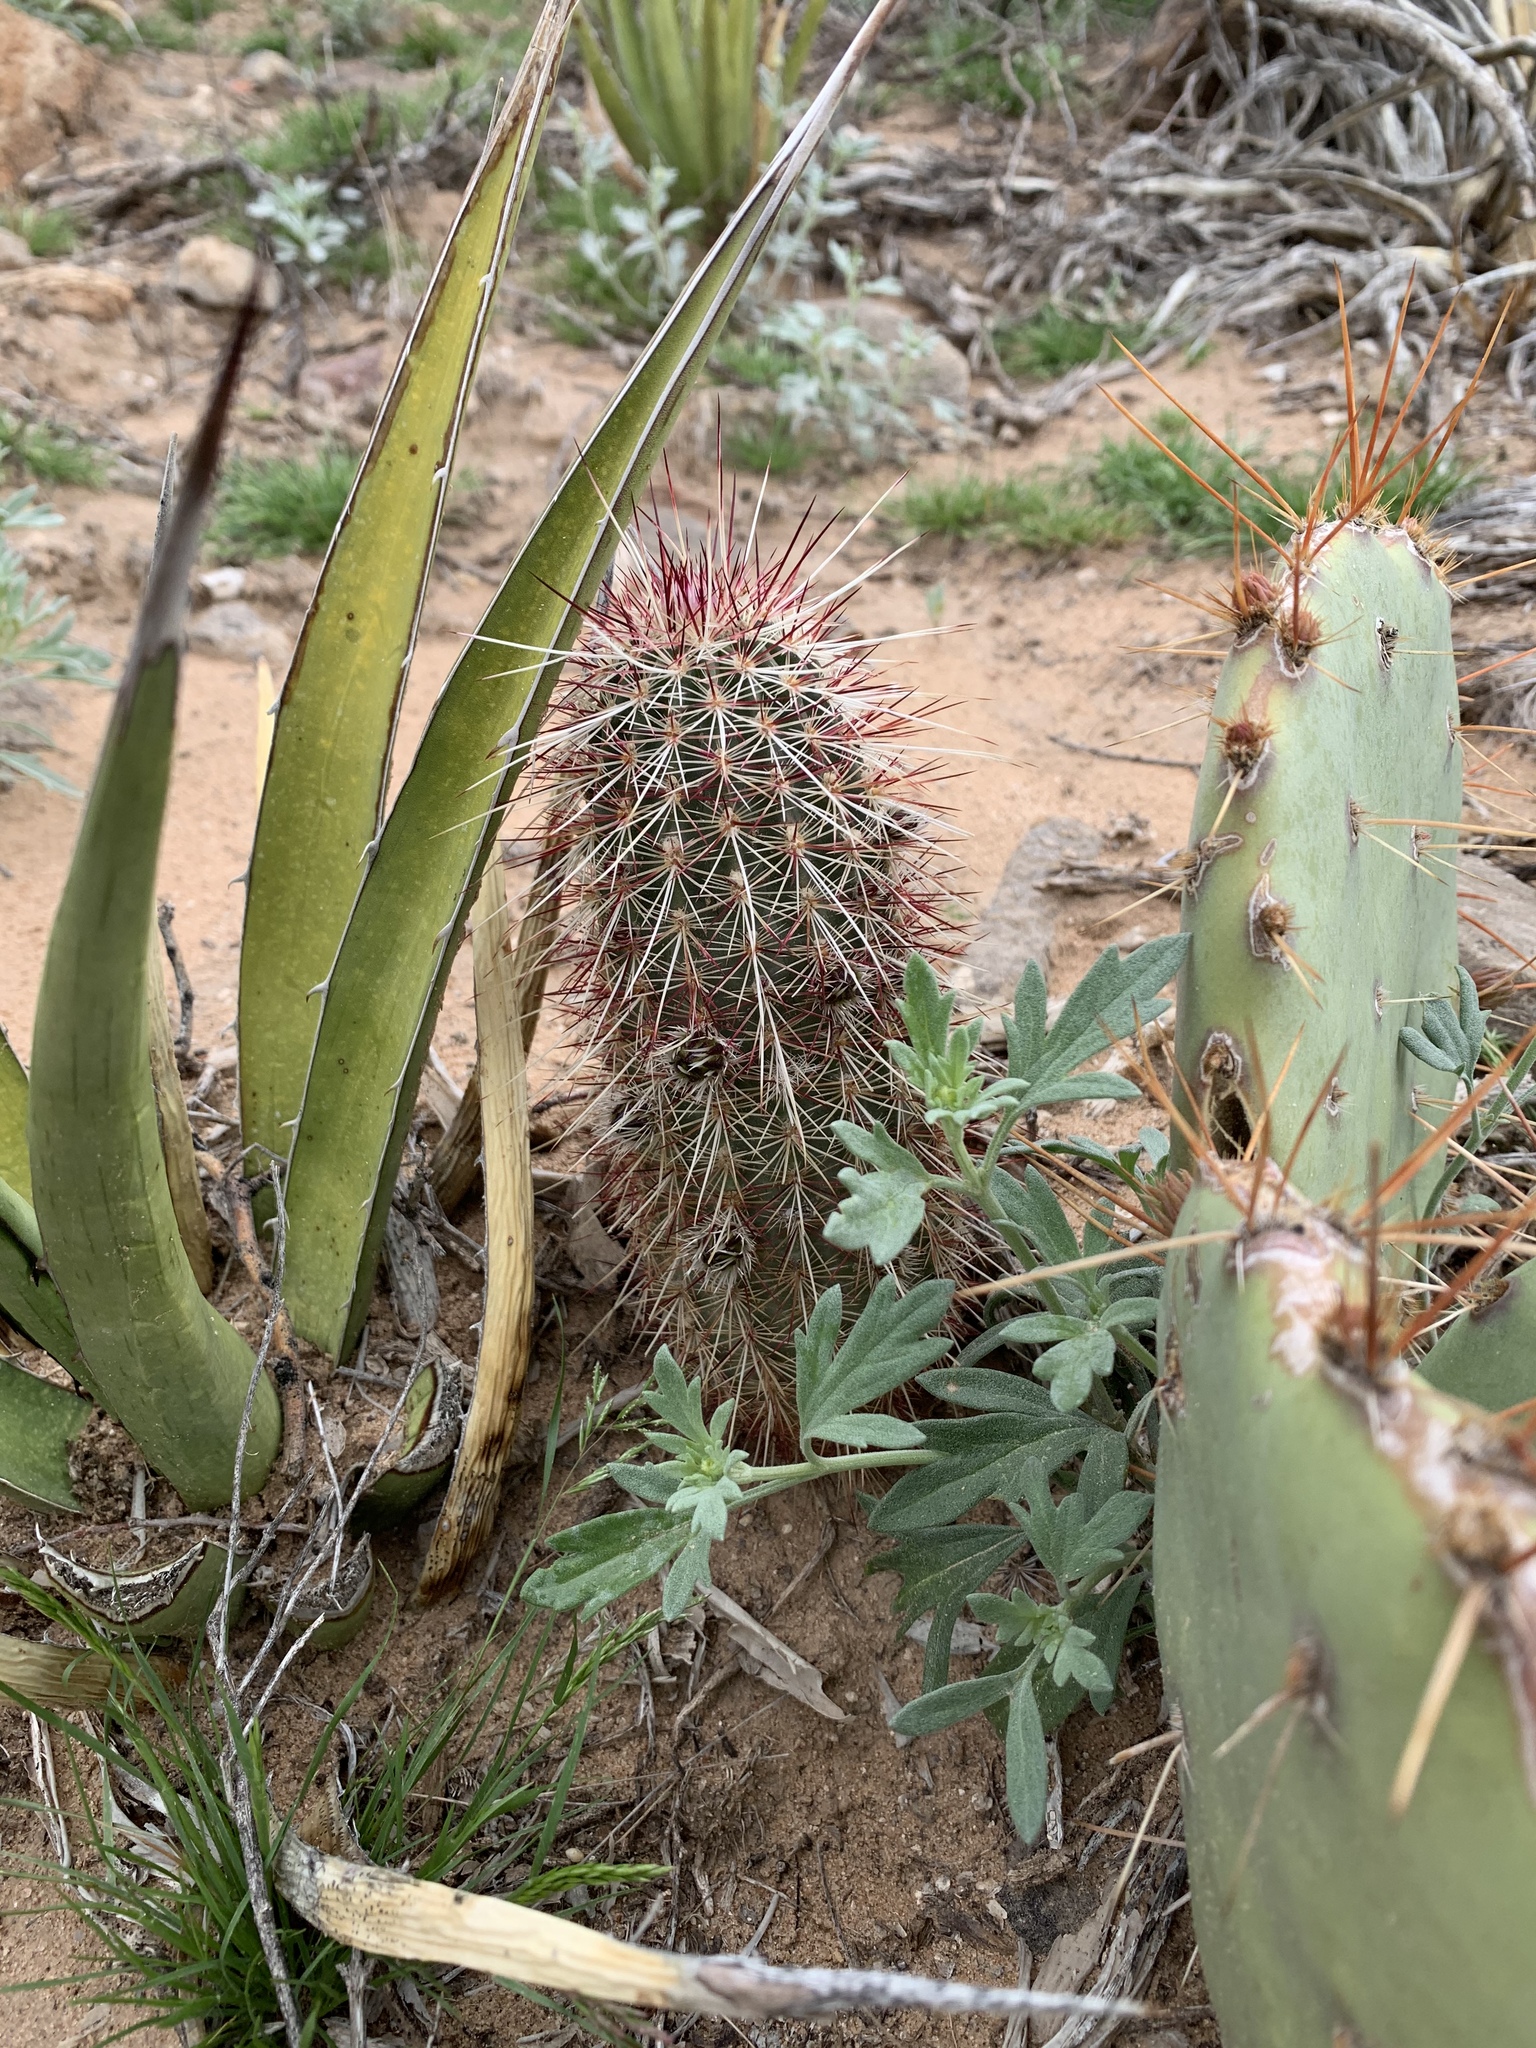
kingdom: Plantae
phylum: Tracheophyta
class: Magnoliopsida
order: Caryophyllales
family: Cactaceae
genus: Echinocereus
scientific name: Echinocereus viridiflorus
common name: Nylon hedgehog cactus
